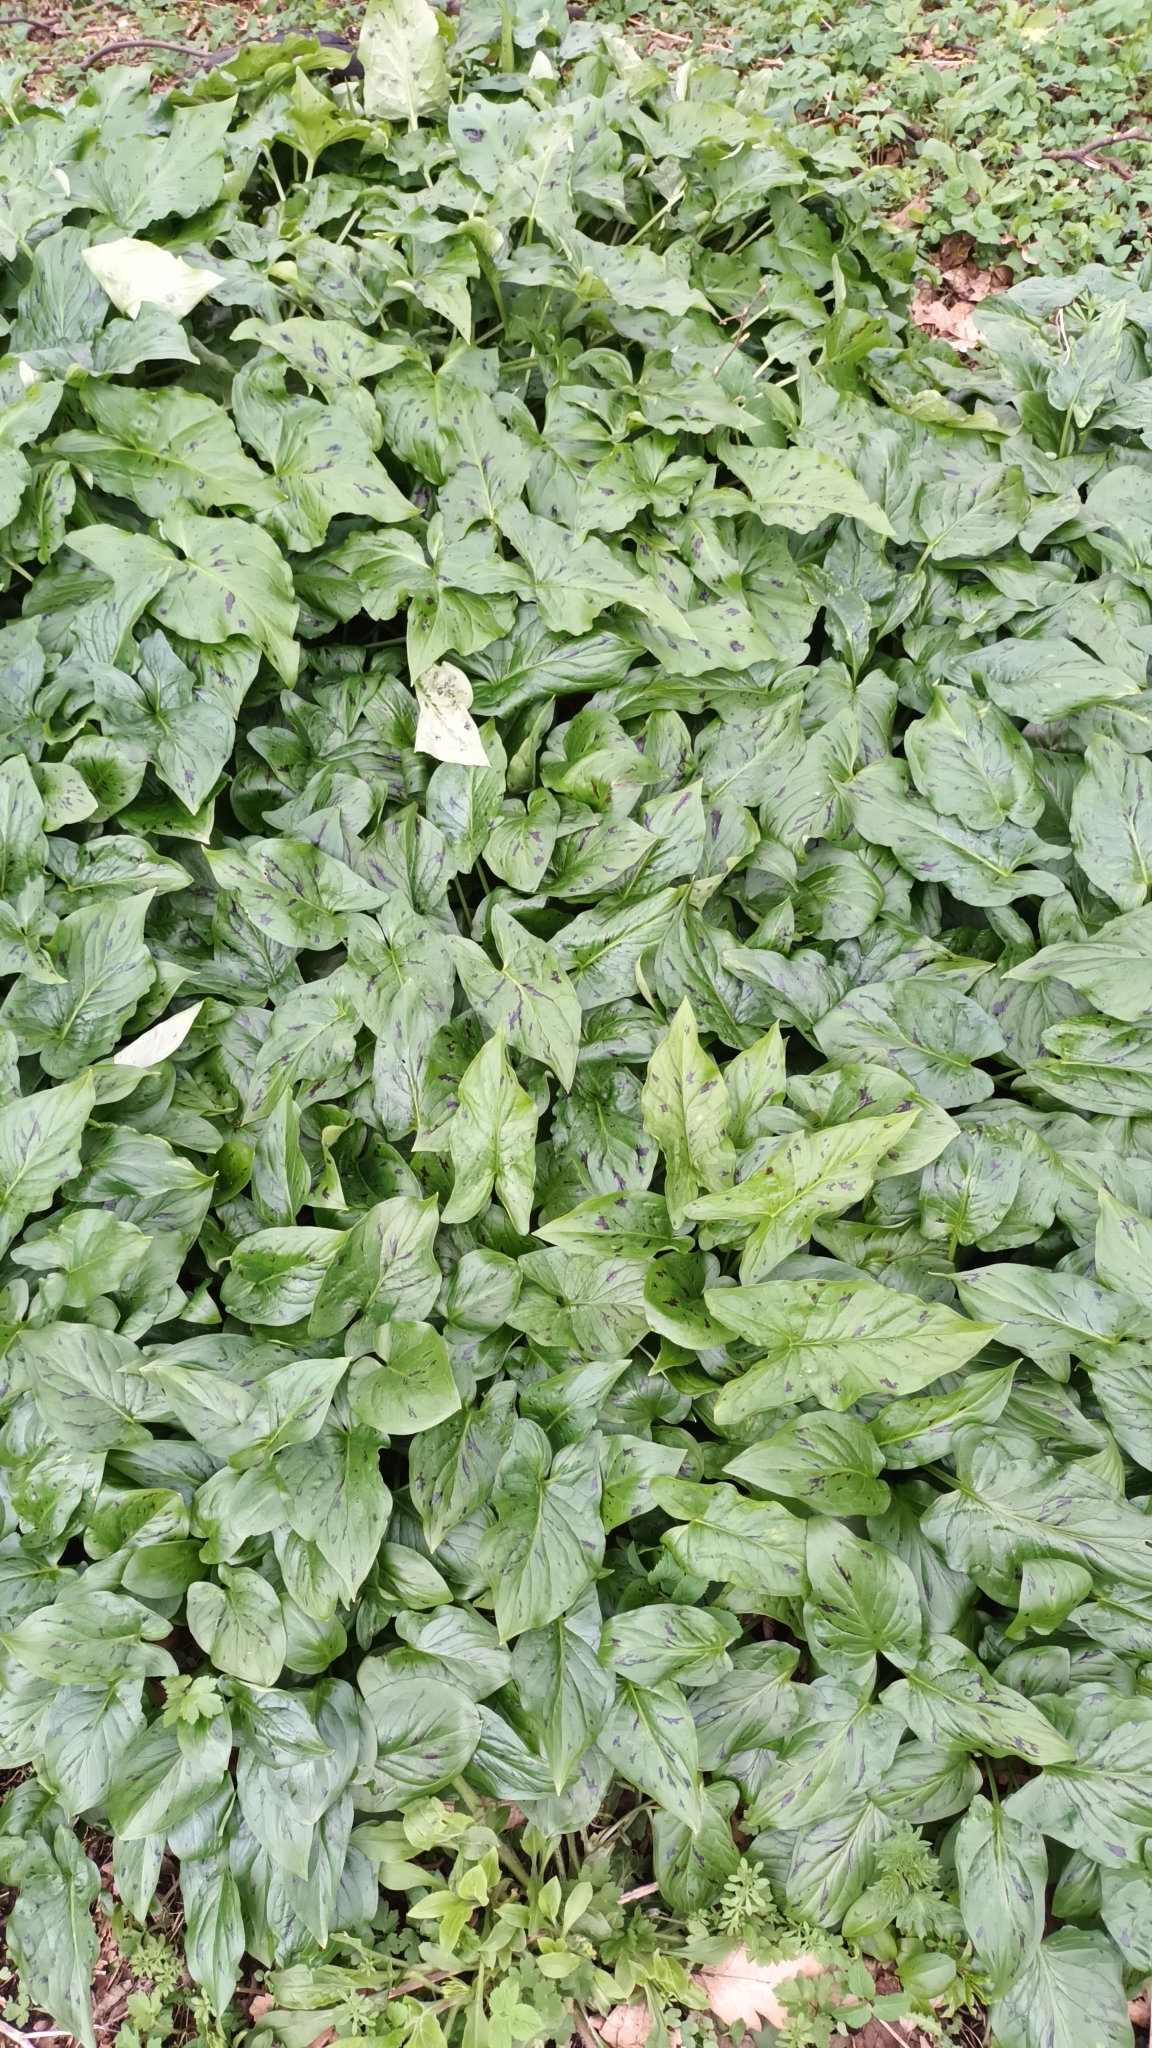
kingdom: Plantae
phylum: Tracheophyta
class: Liliopsida
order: Alismatales
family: Araceae
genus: Arum
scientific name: Arum maculatum
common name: Lords-and-ladies
